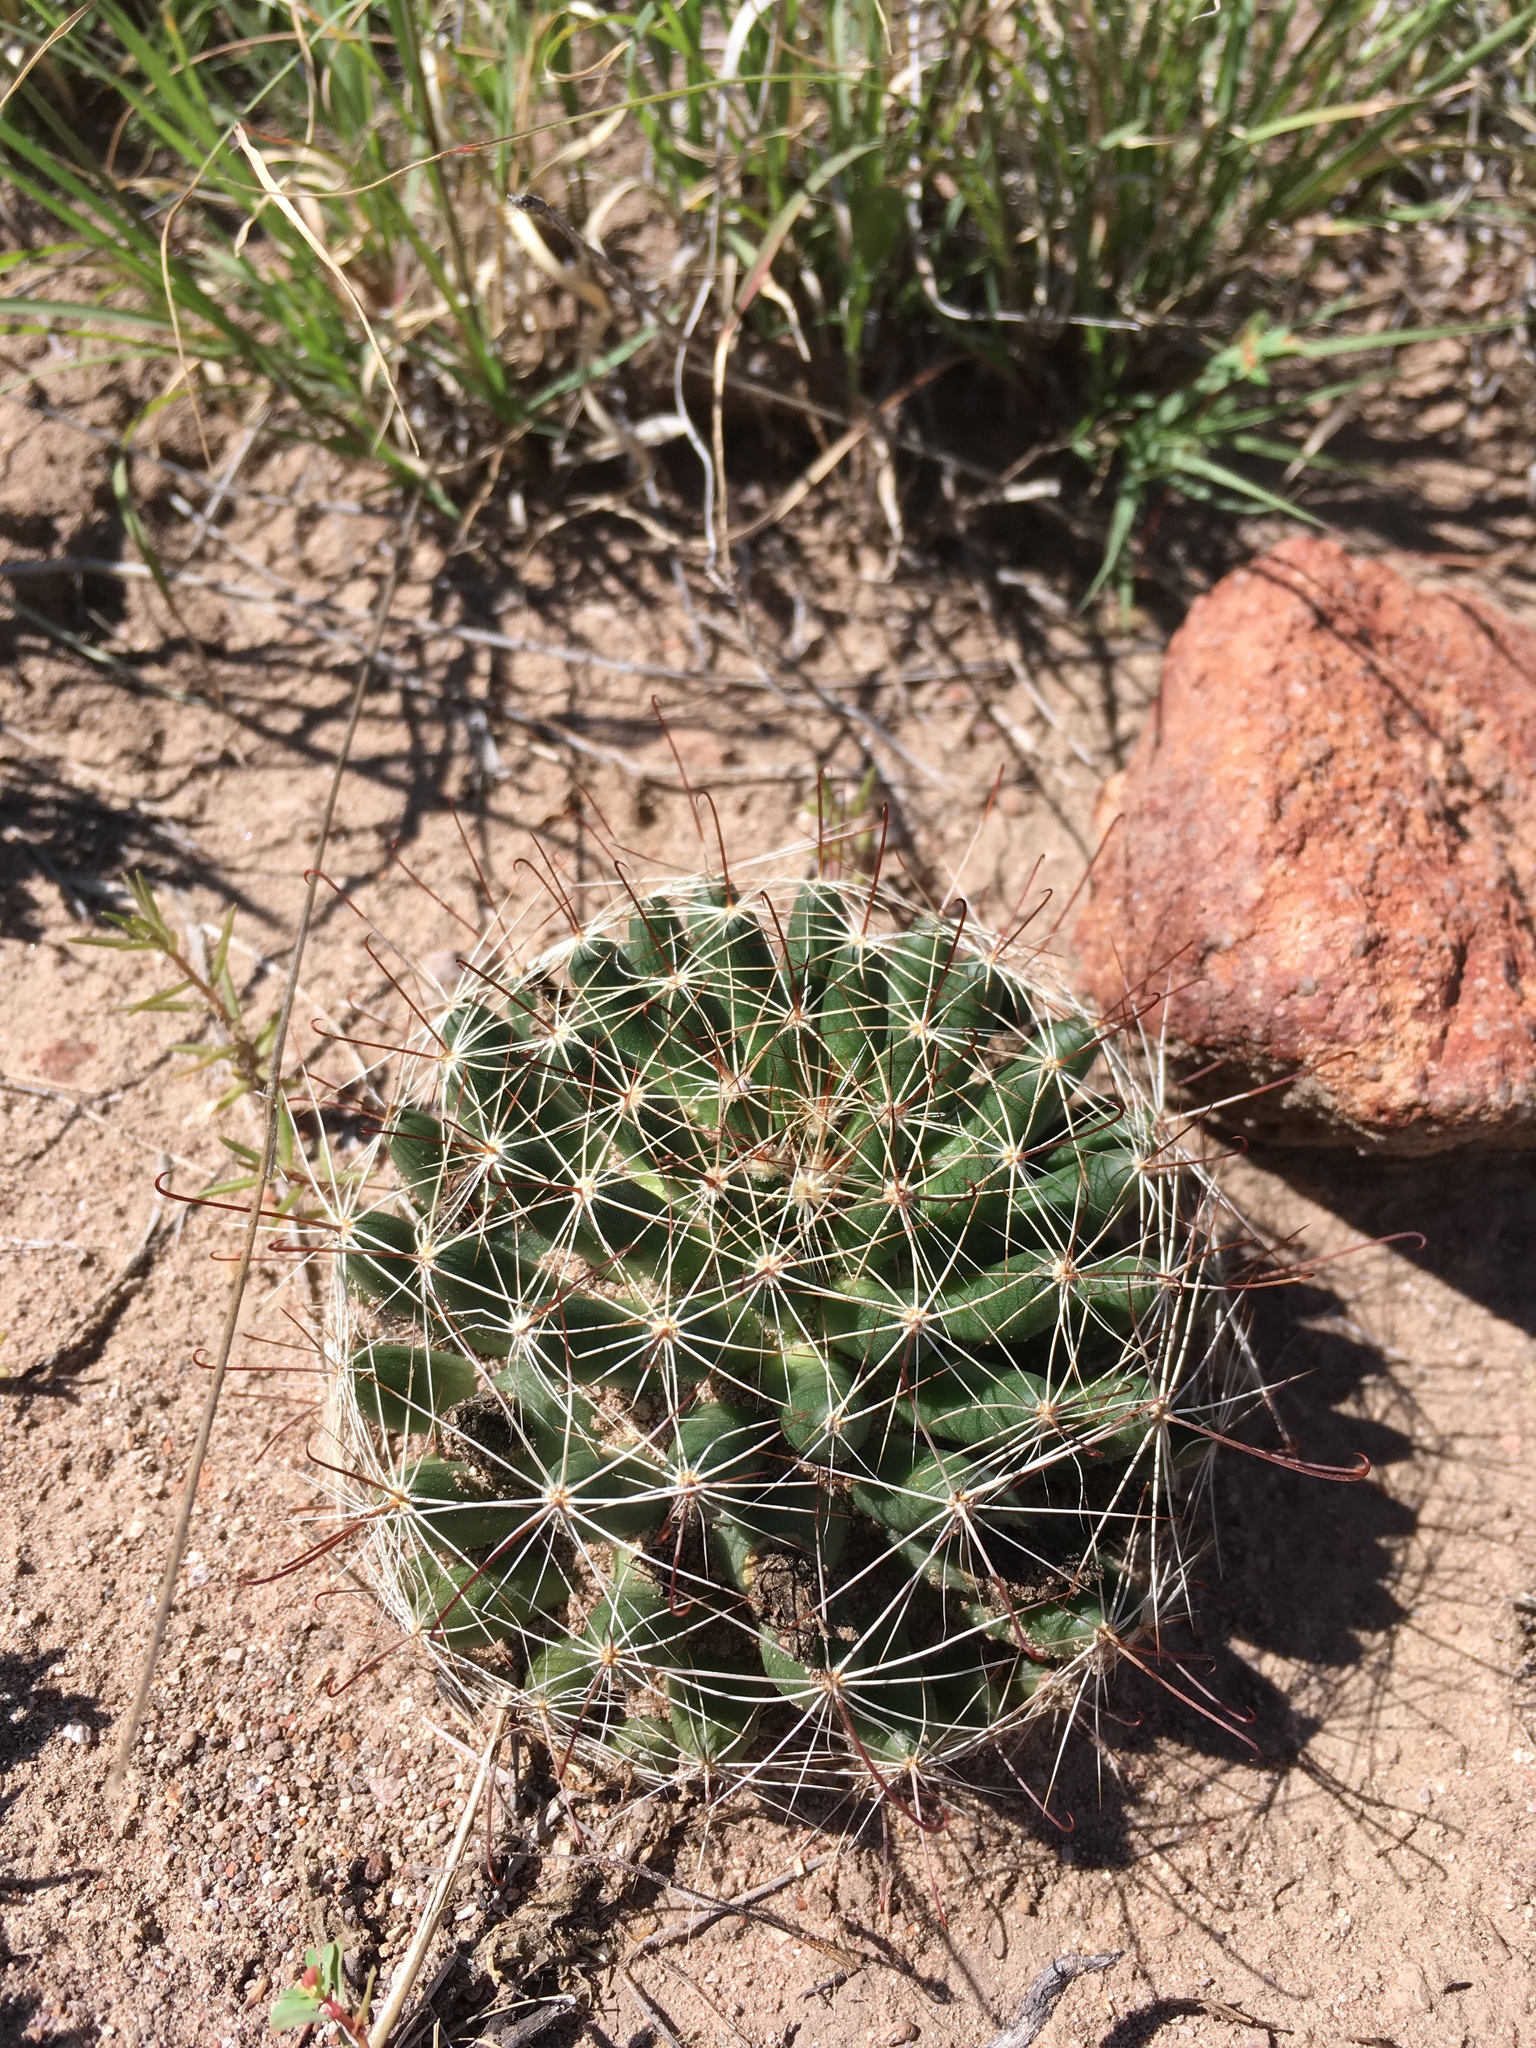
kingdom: Plantae
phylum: Tracheophyta
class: Magnoliopsida
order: Caryophyllales
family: Cactaceae
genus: Cochemiea
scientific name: Cochemiea wrightii
